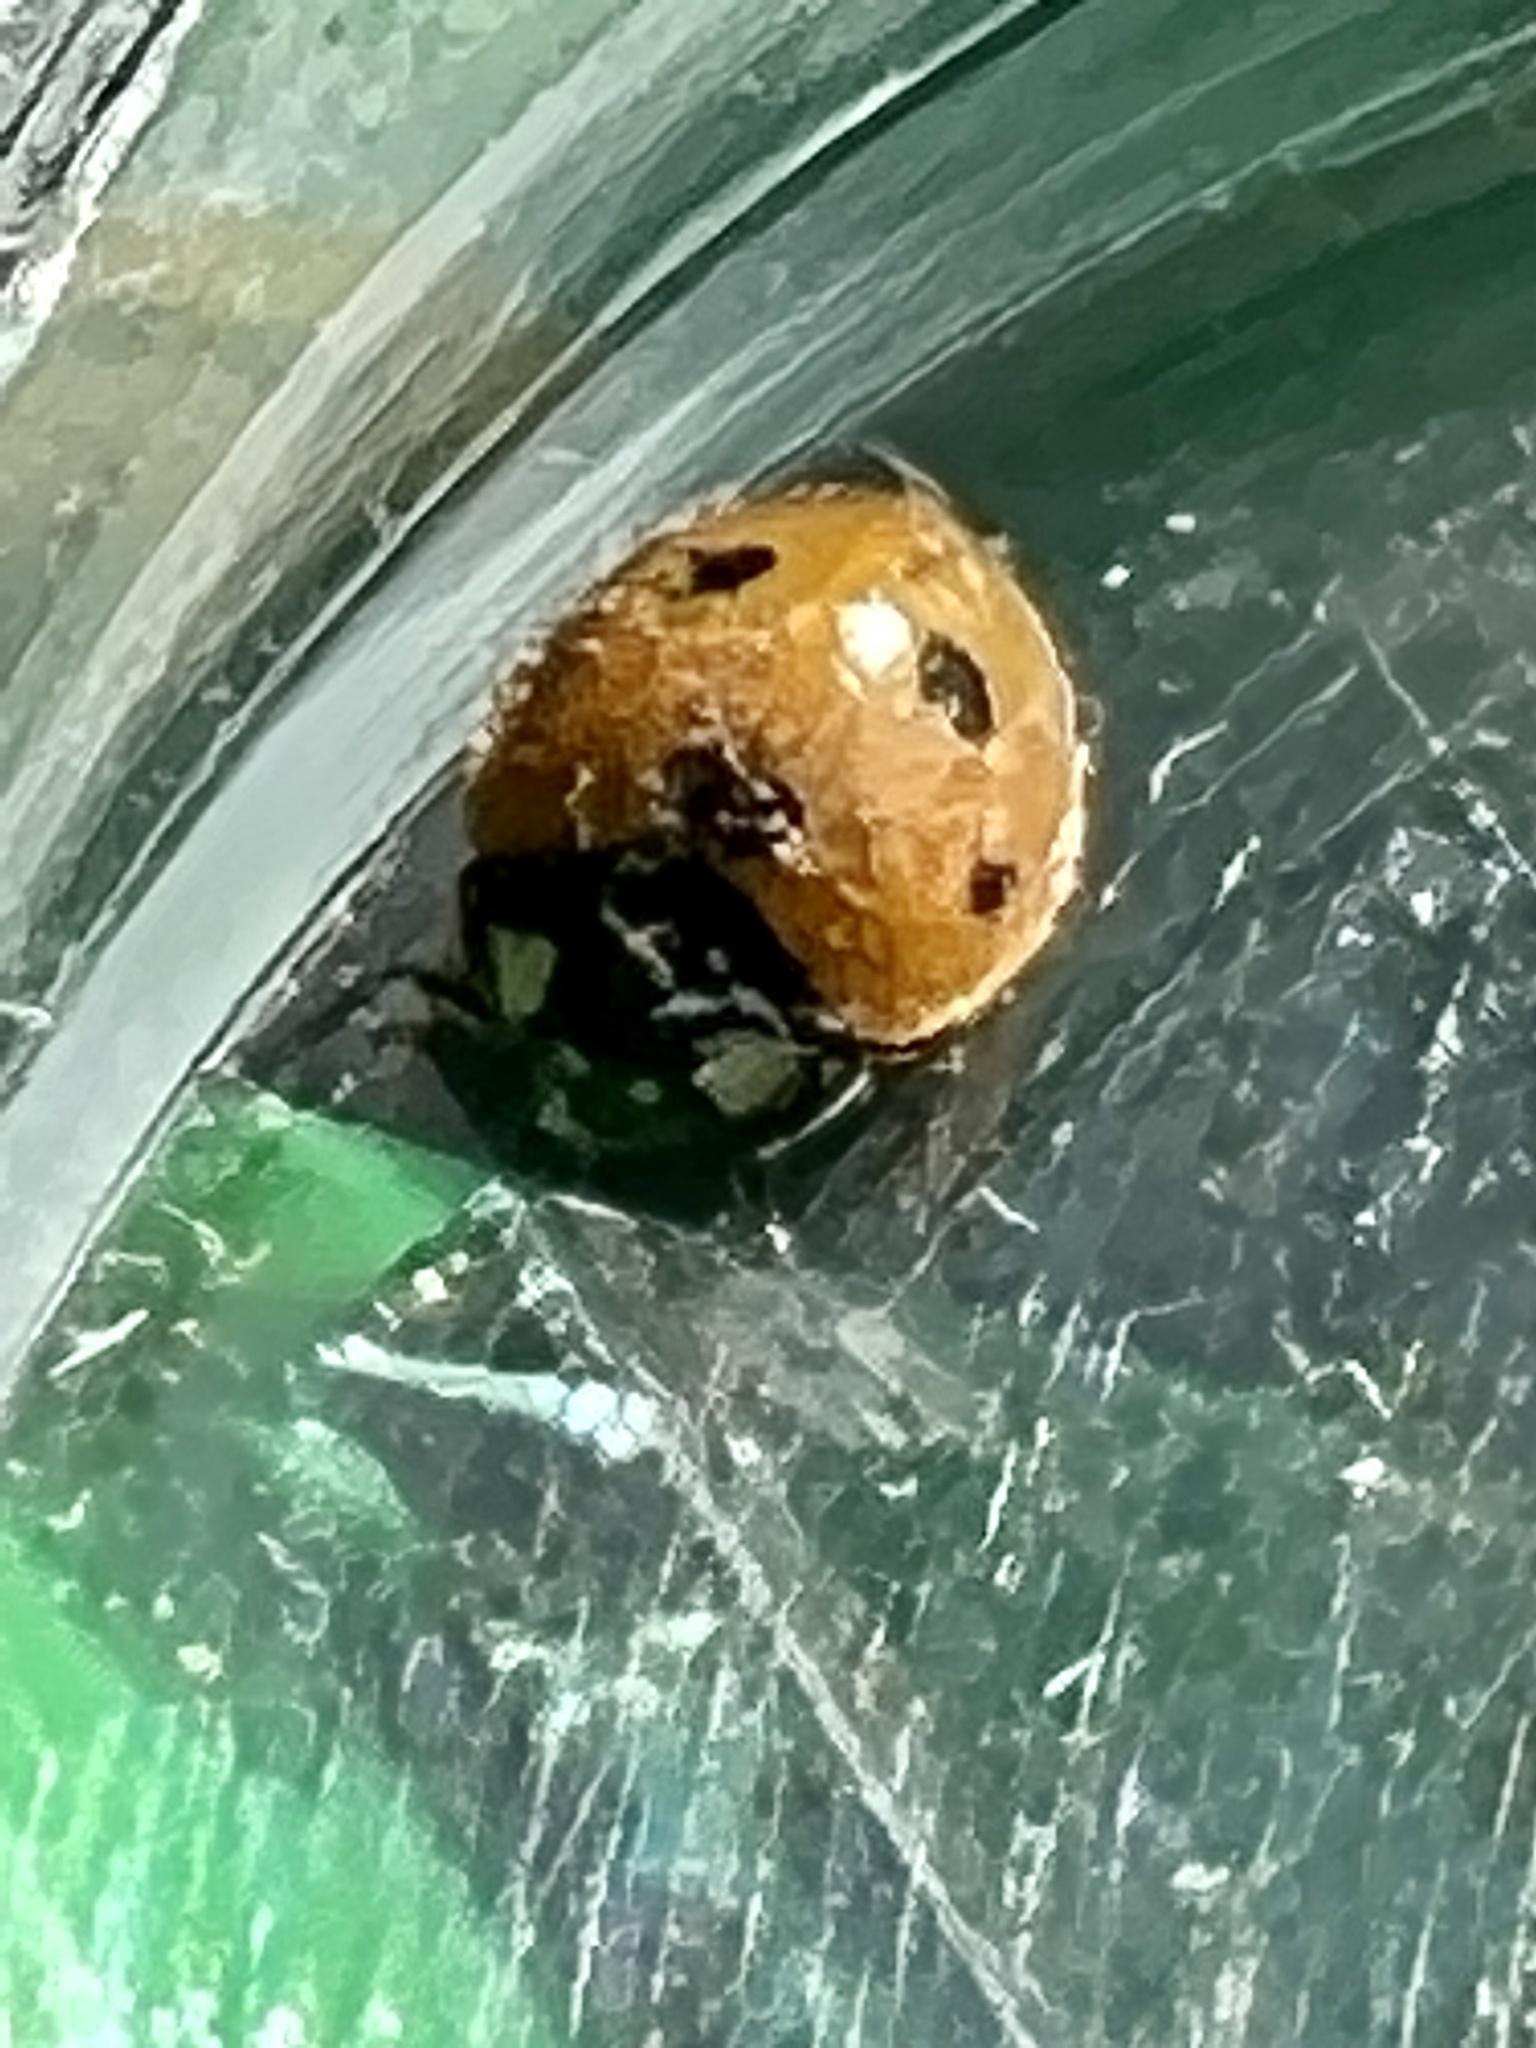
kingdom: Animalia
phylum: Arthropoda
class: Insecta
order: Coleoptera
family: Coccinellidae
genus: Coccinella
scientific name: Coccinella septempunctata
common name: Sevenspotted lady beetle
